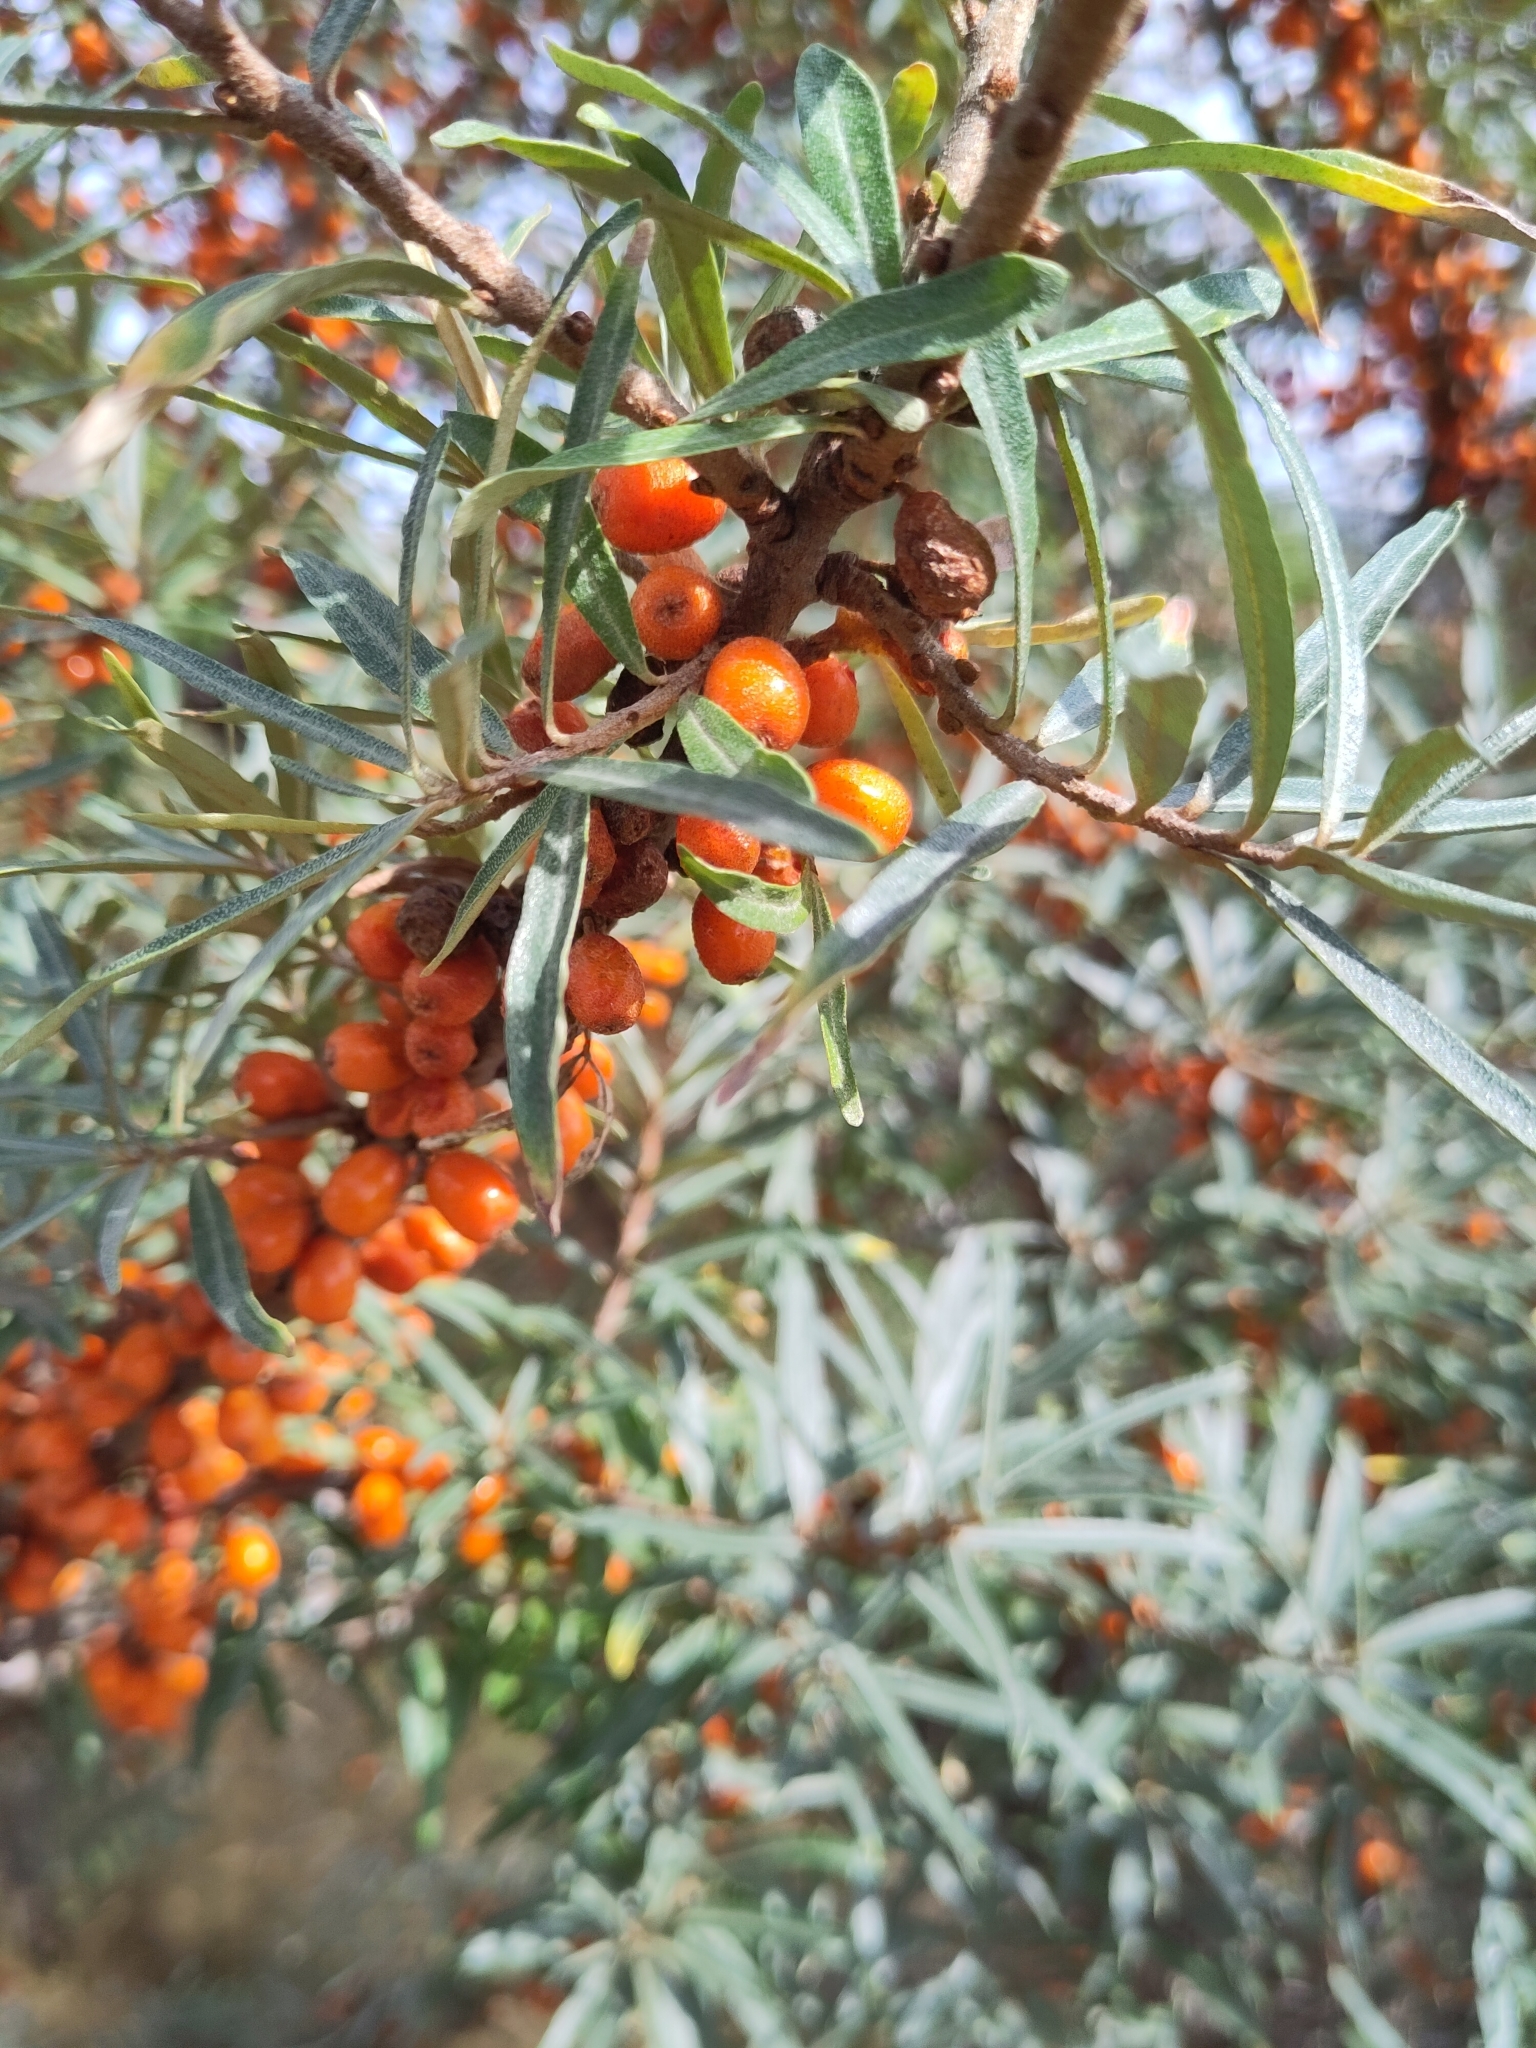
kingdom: Plantae
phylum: Tracheophyta
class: Magnoliopsida
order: Rosales
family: Elaeagnaceae
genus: Hippophae
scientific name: Hippophae rhamnoides
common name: Sea-buckthorn
